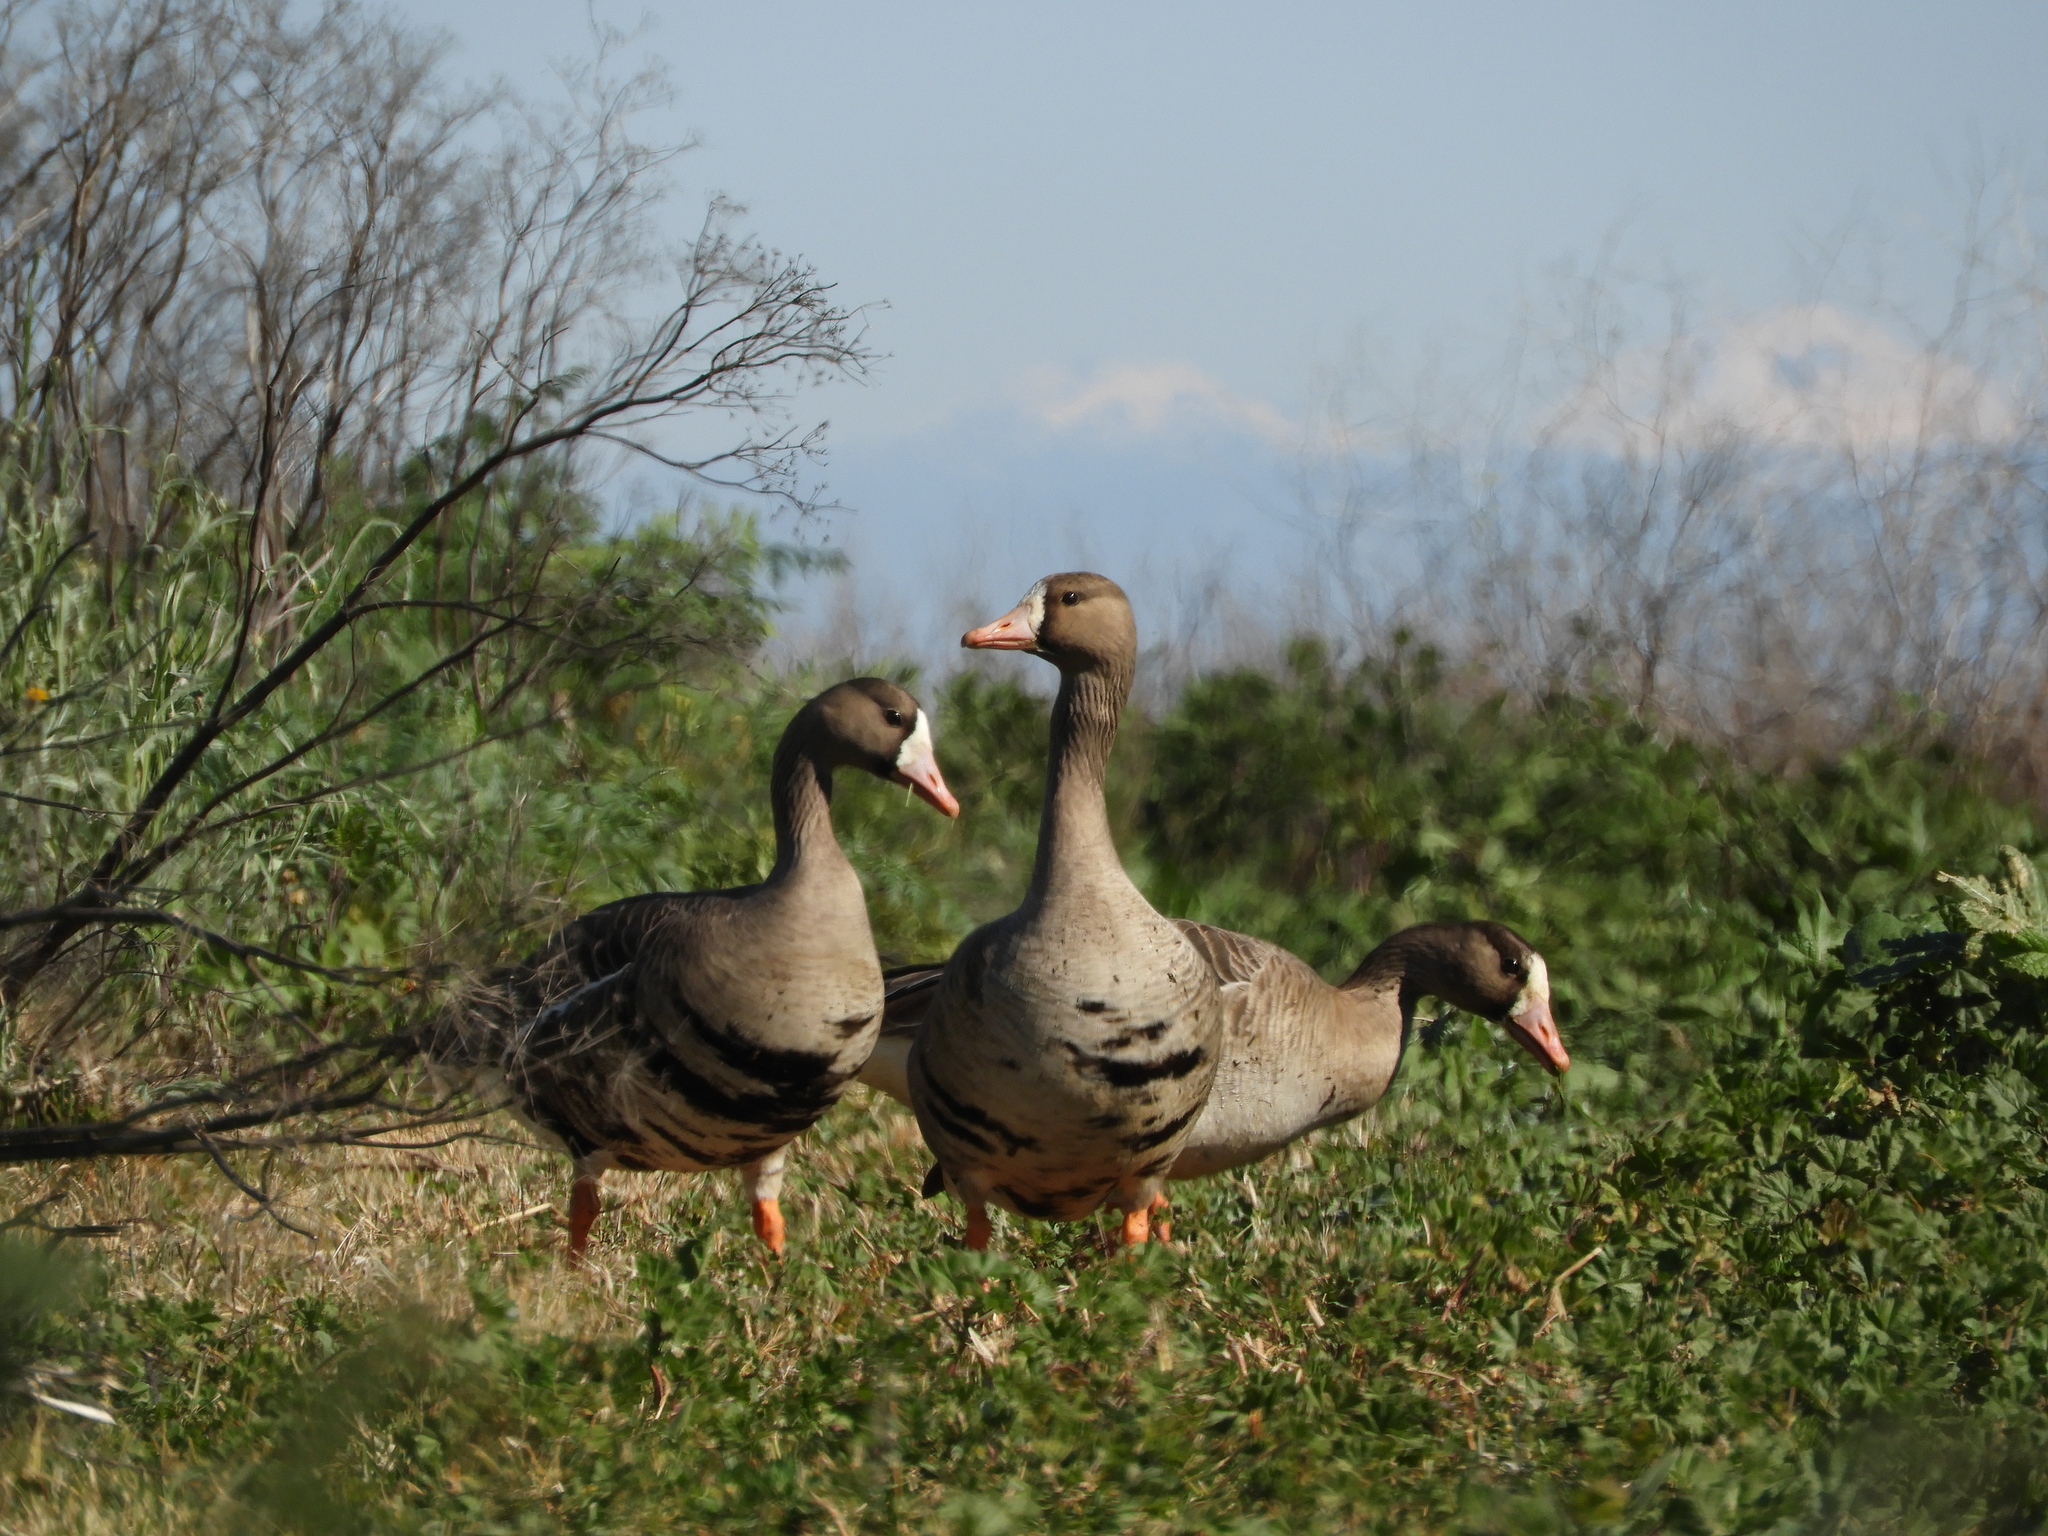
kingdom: Animalia
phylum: Chordata
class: Aves
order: Anseriformes
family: Anatidae
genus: Anser
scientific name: Anser albifrons
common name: Greater white-fronted goose
